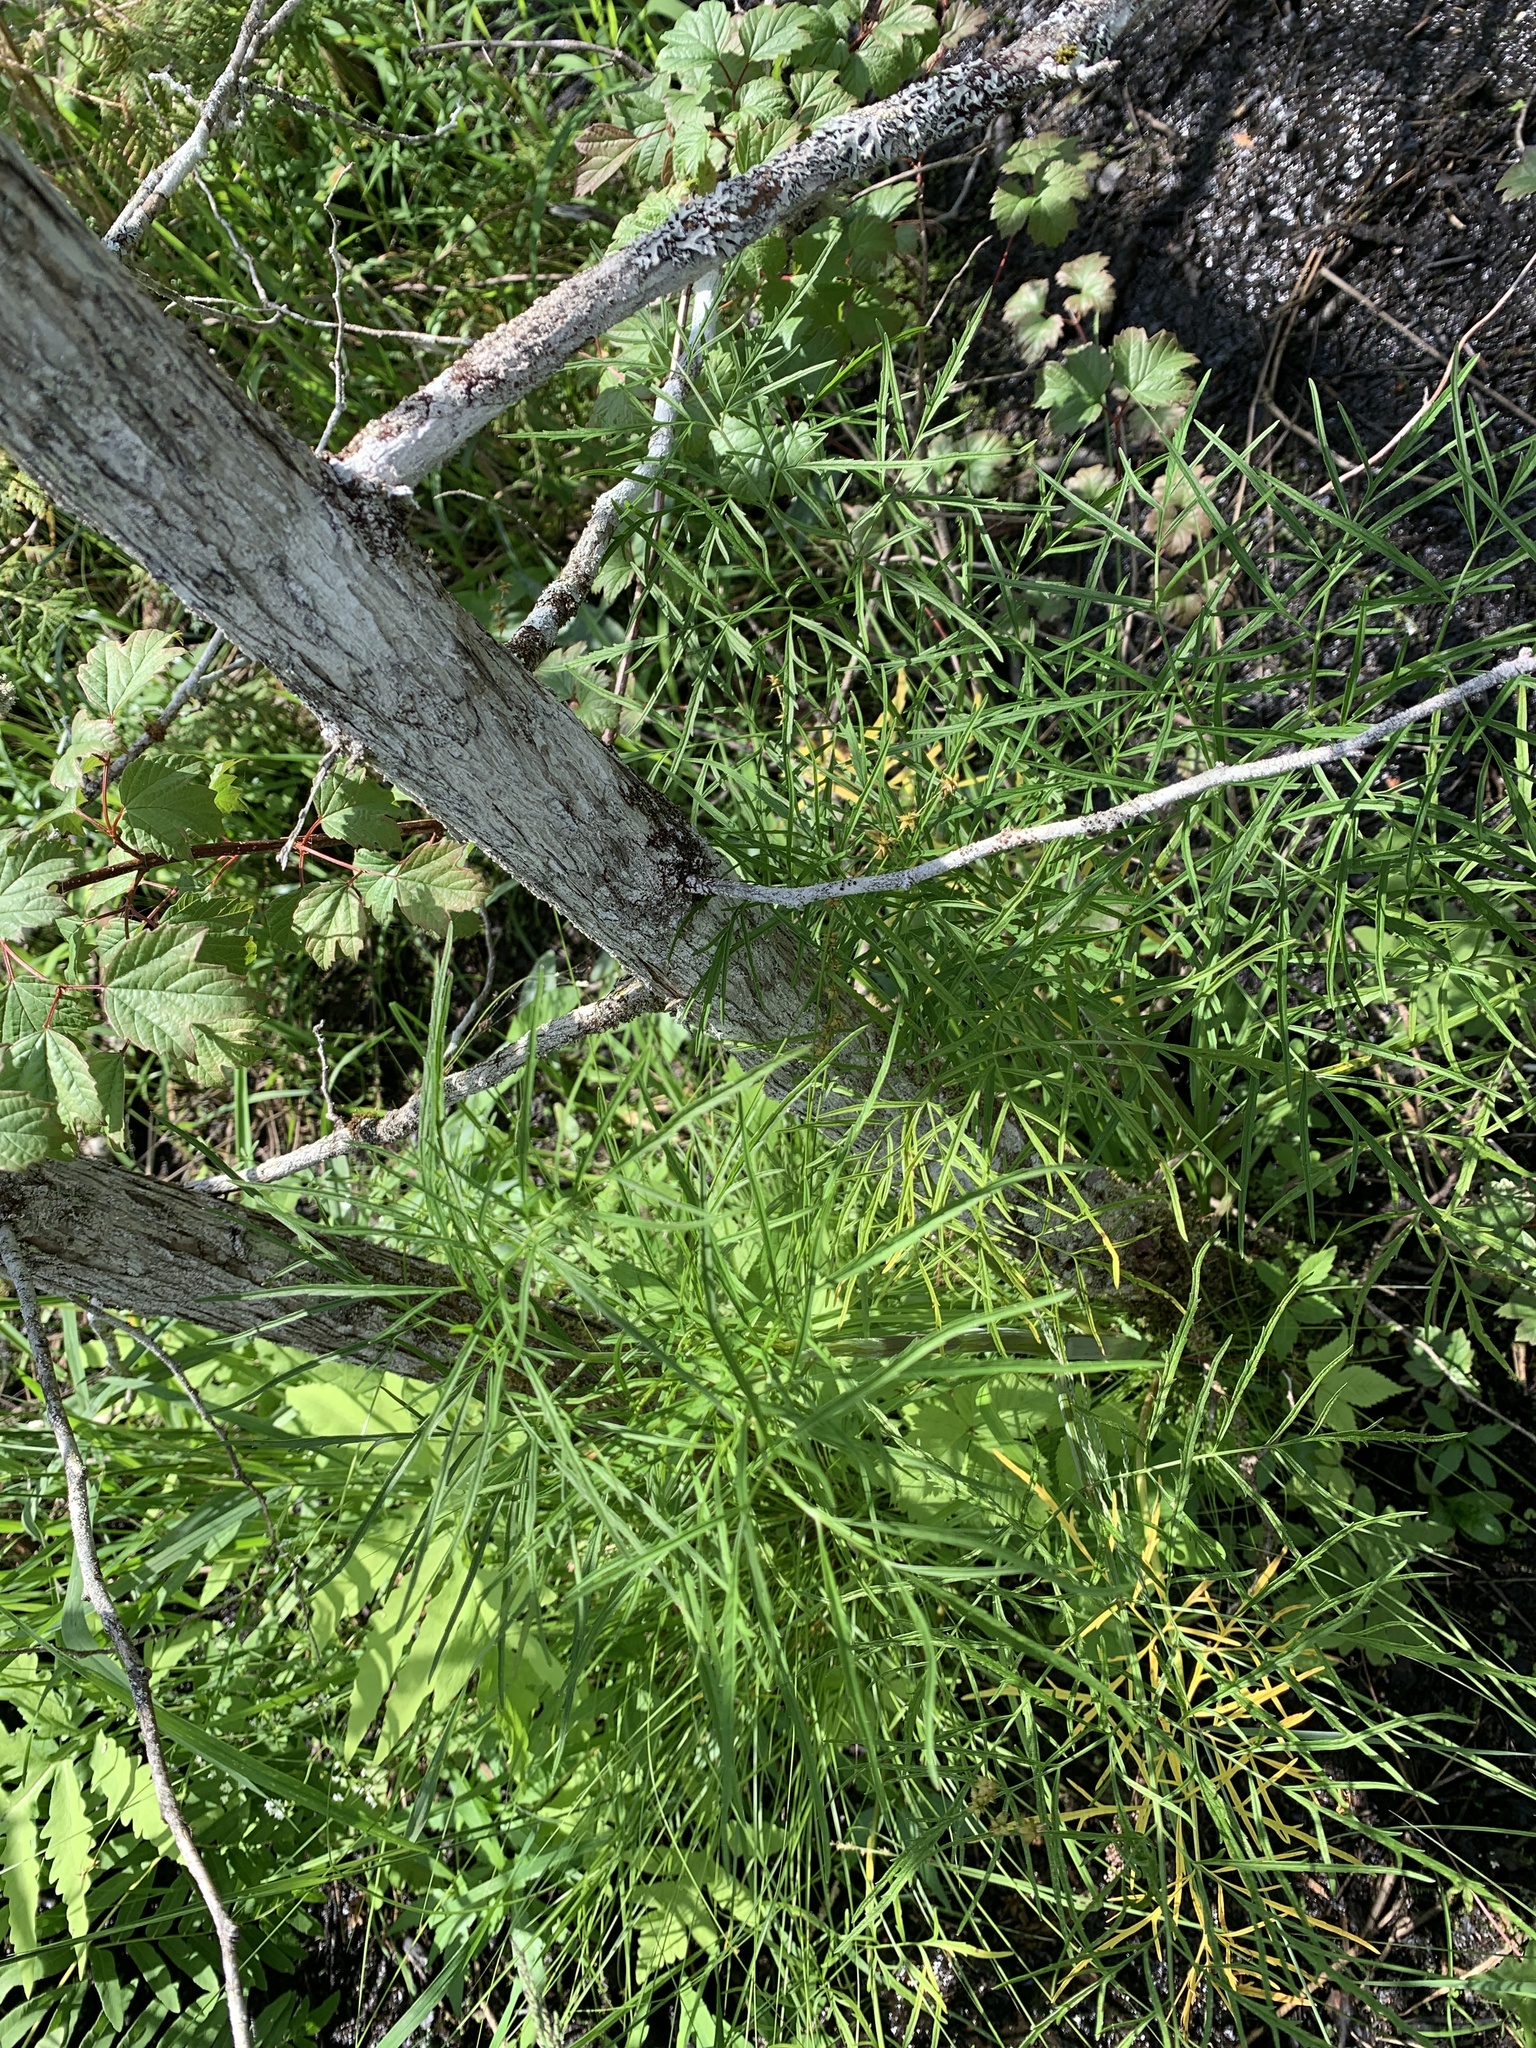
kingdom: Plantae
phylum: Tracheophyta
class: Magnoliopsida
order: Apiales
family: Apiaceae
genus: Cicuta
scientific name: Cicuta bulbifera
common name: Bulb-bearing water-hemlock
